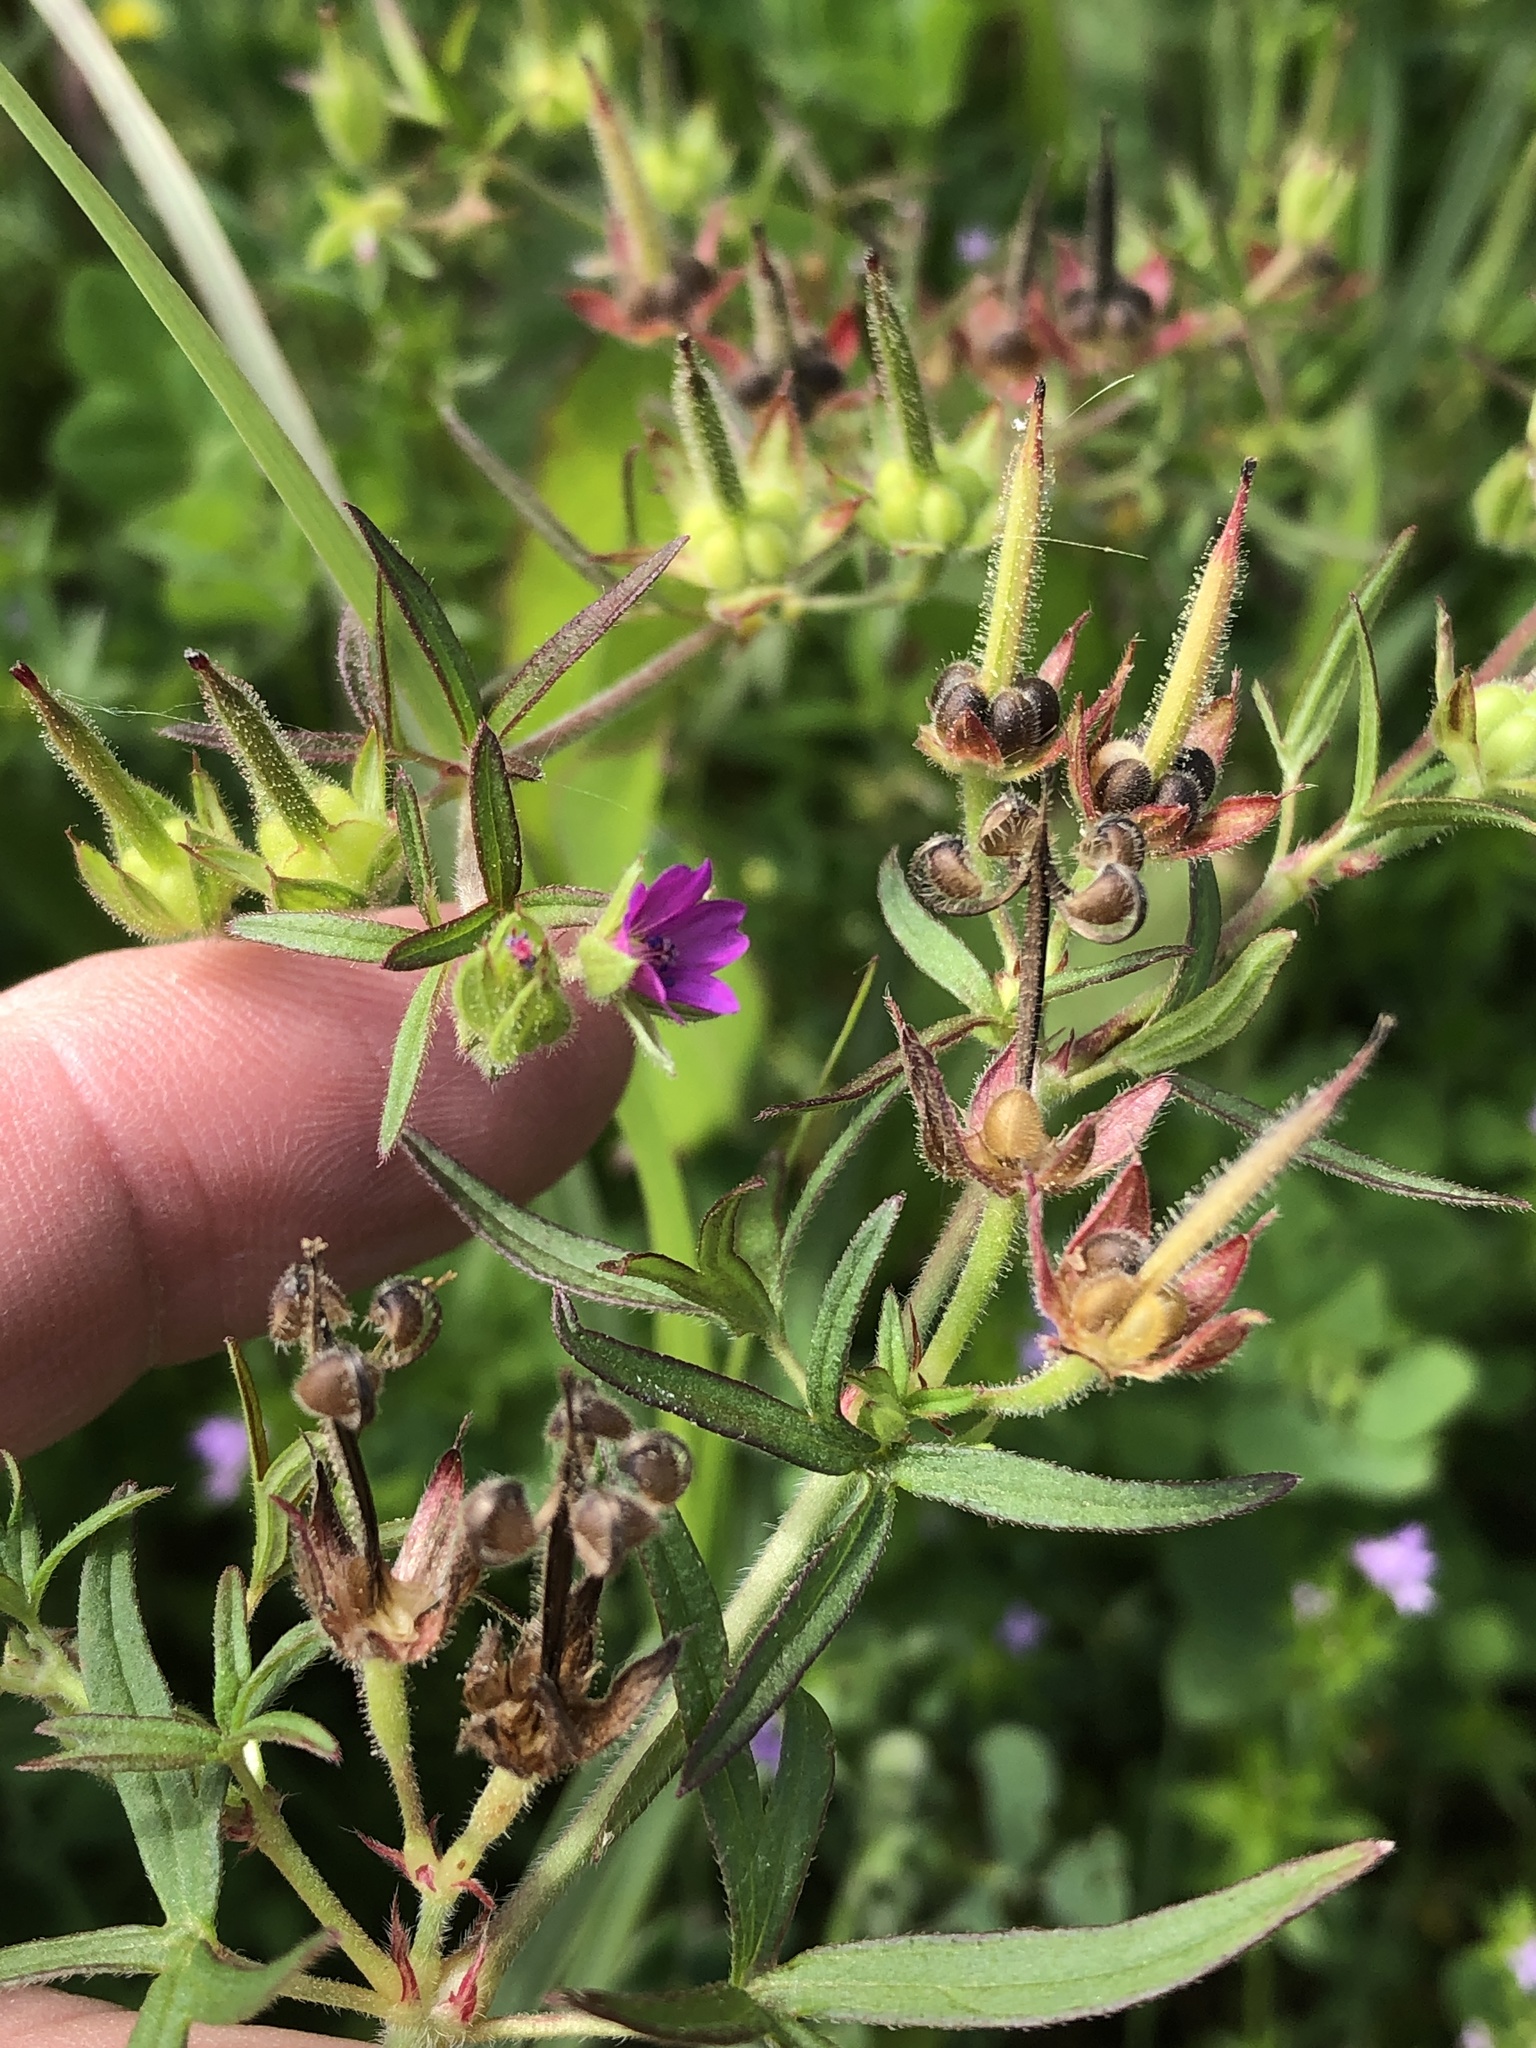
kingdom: Plantae
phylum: Tracheophyta
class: Magnoliopsida
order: Geraniales
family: Geraniaceae
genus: Geranium
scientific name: Geranium dissectum
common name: Cut-leaved crane's-bill
